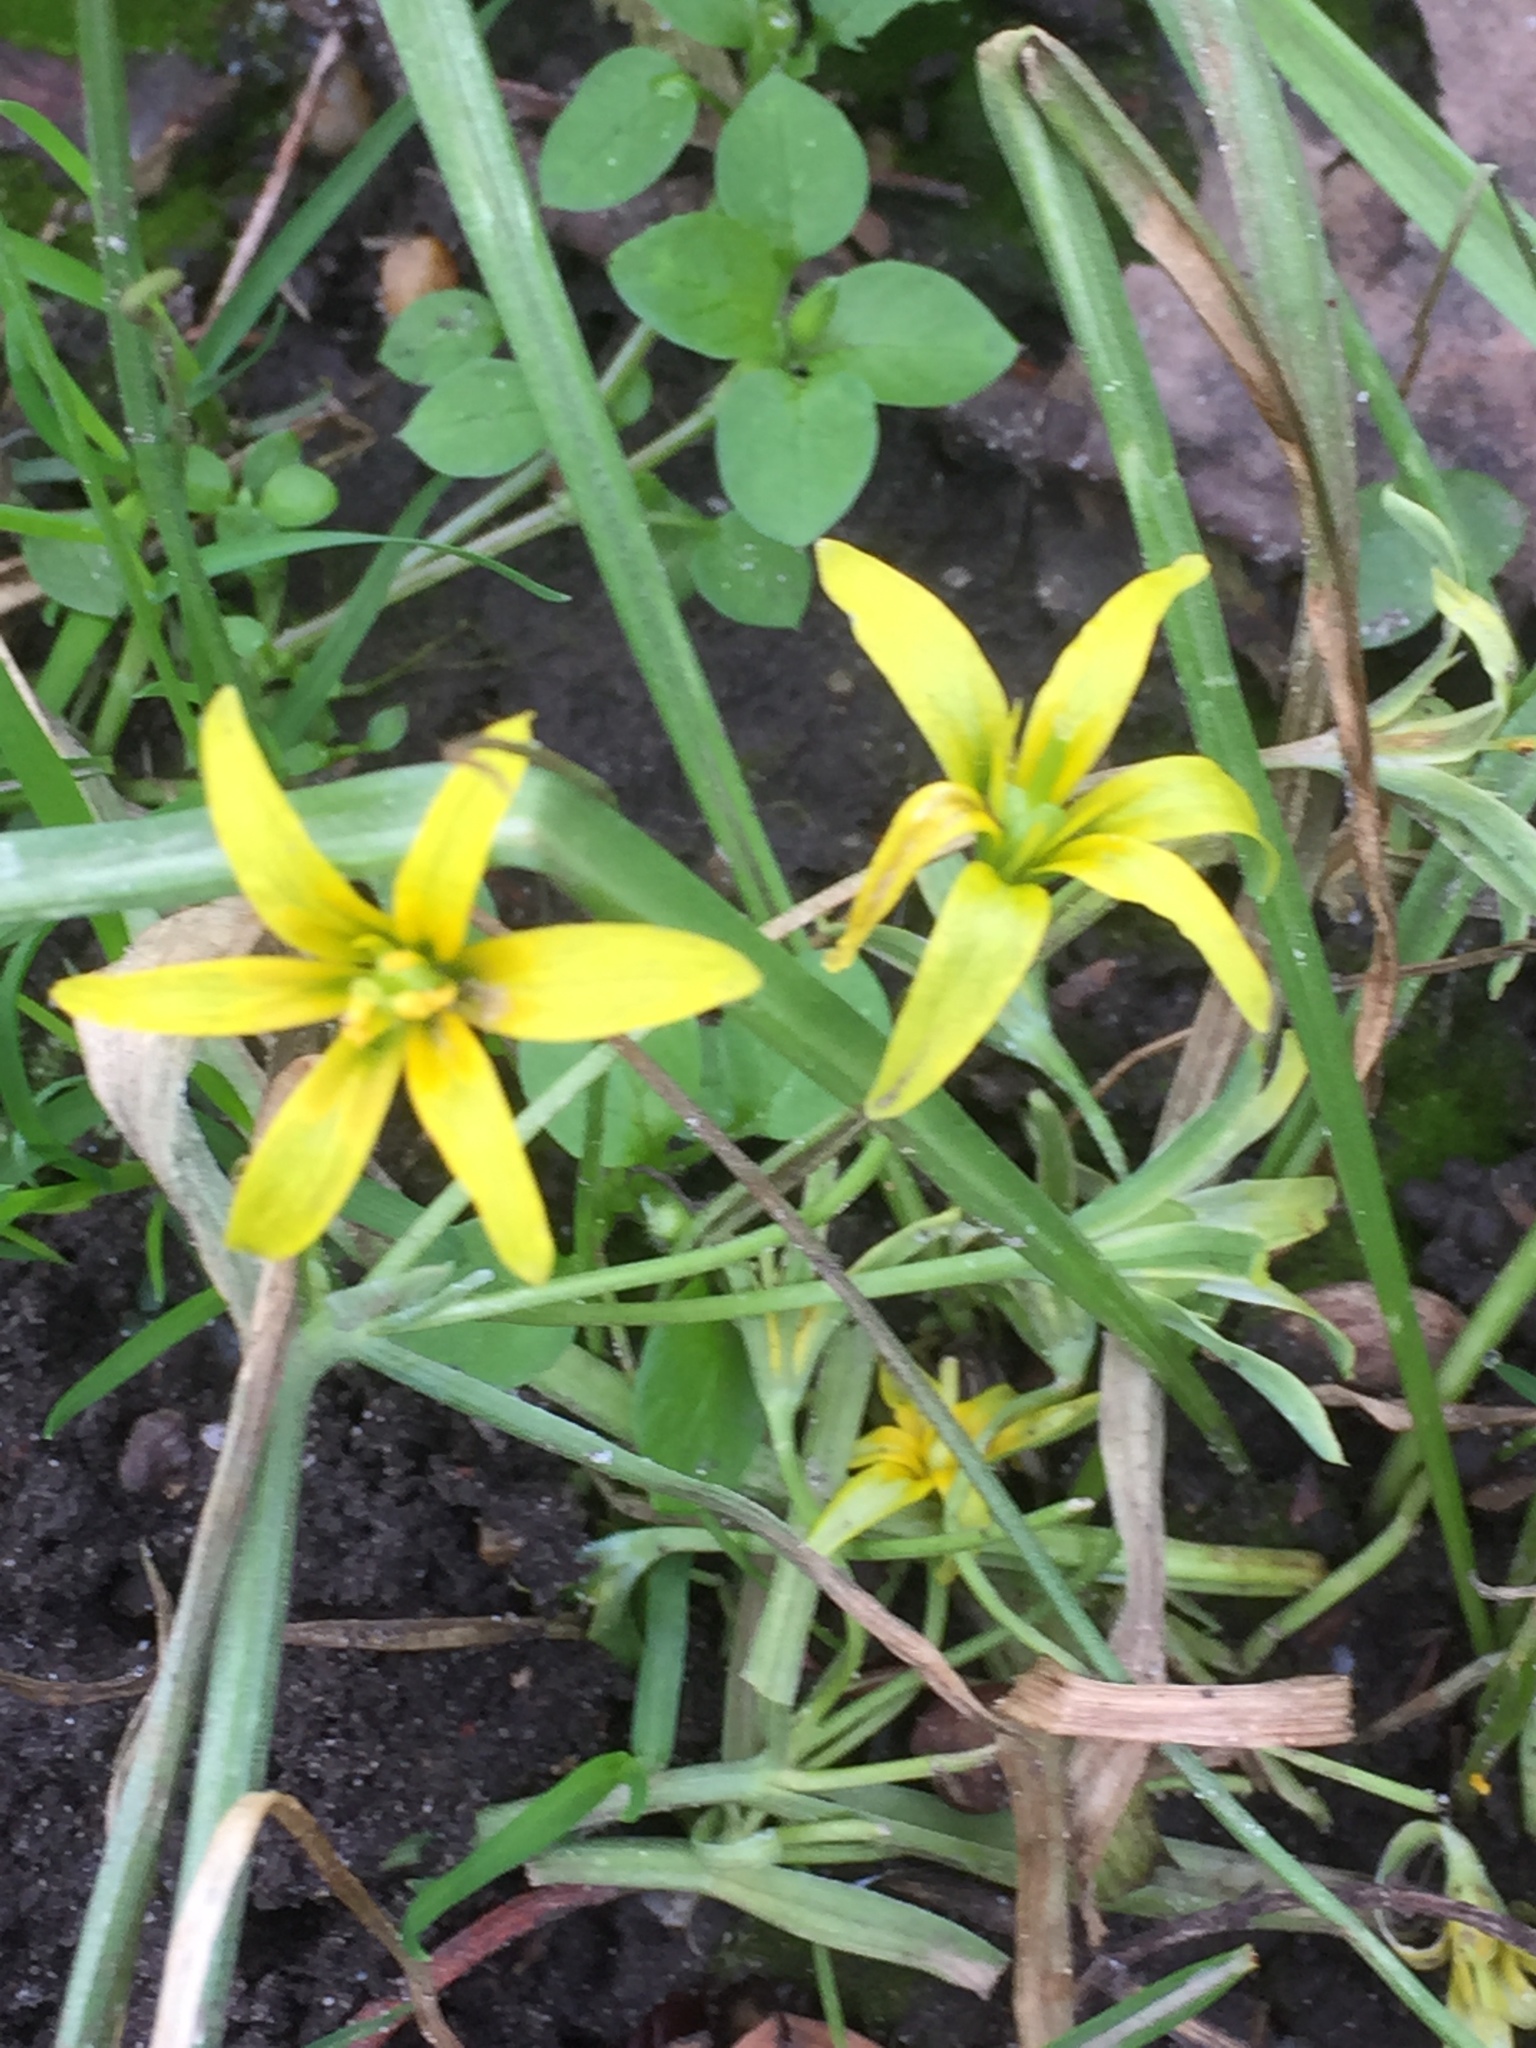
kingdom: Plantae
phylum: Tracheophyta
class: Liliopsida
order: Liliales
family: Liliaceae
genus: Gagea
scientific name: Gagea lutea
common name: Yellow star-of-bethlehem
